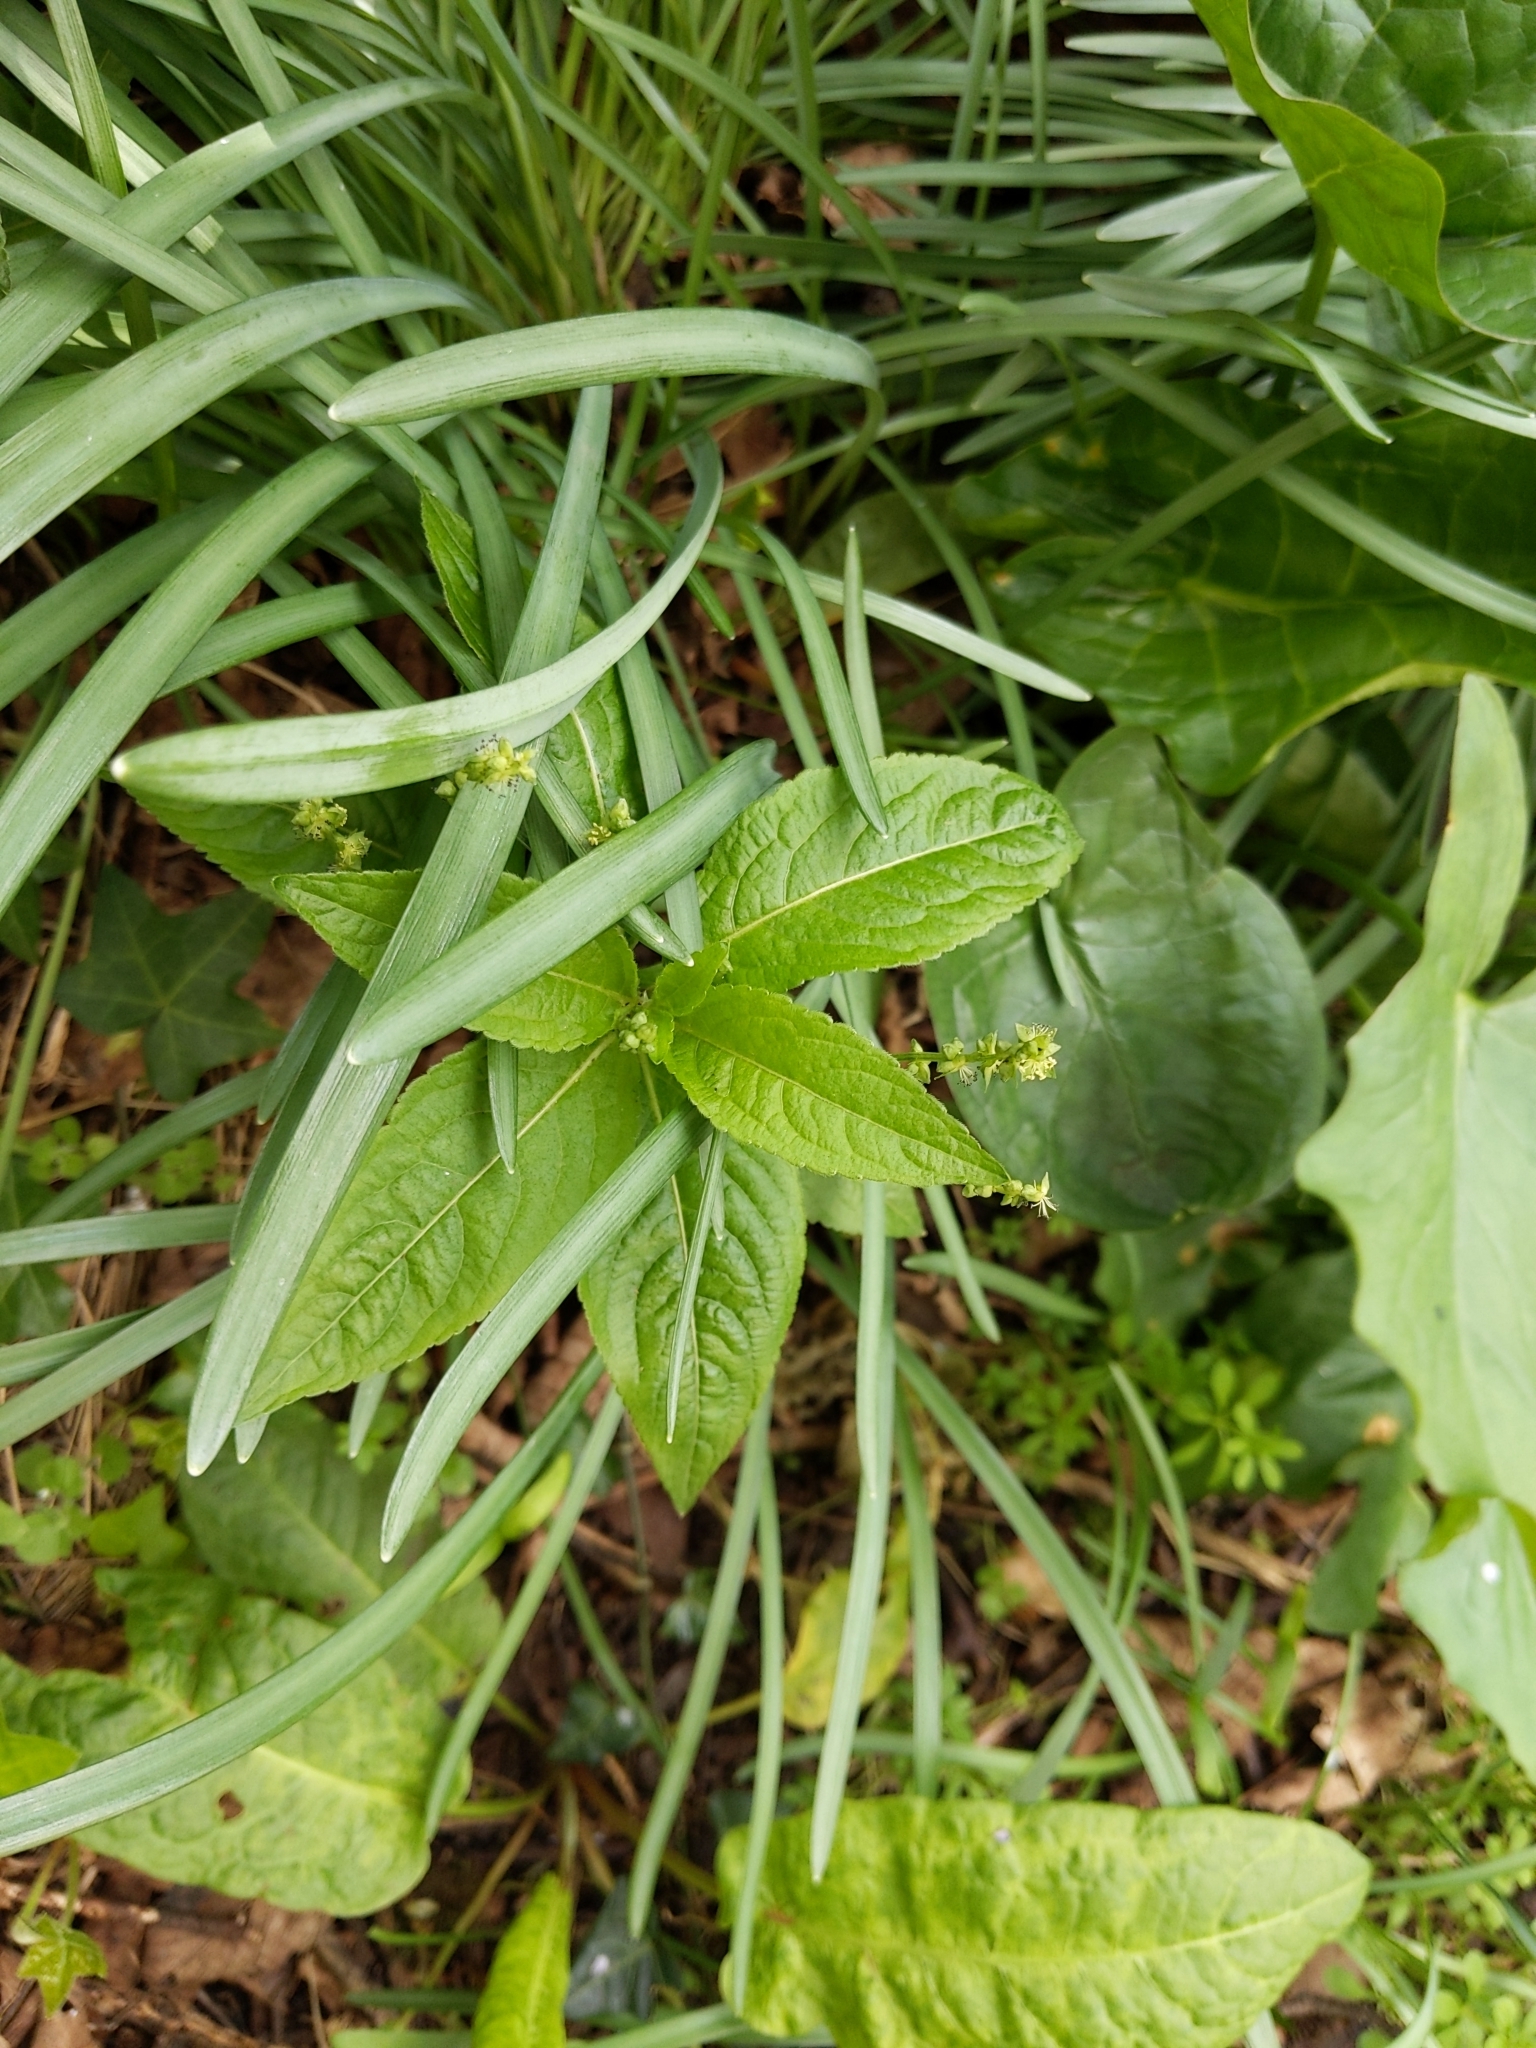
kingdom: Plantae
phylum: Tracheophyta
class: Magnoliopsida
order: Malpighiales
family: Euphorbiaceae
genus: Mercurialis
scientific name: Mercurialis perennis
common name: Dog mercury
